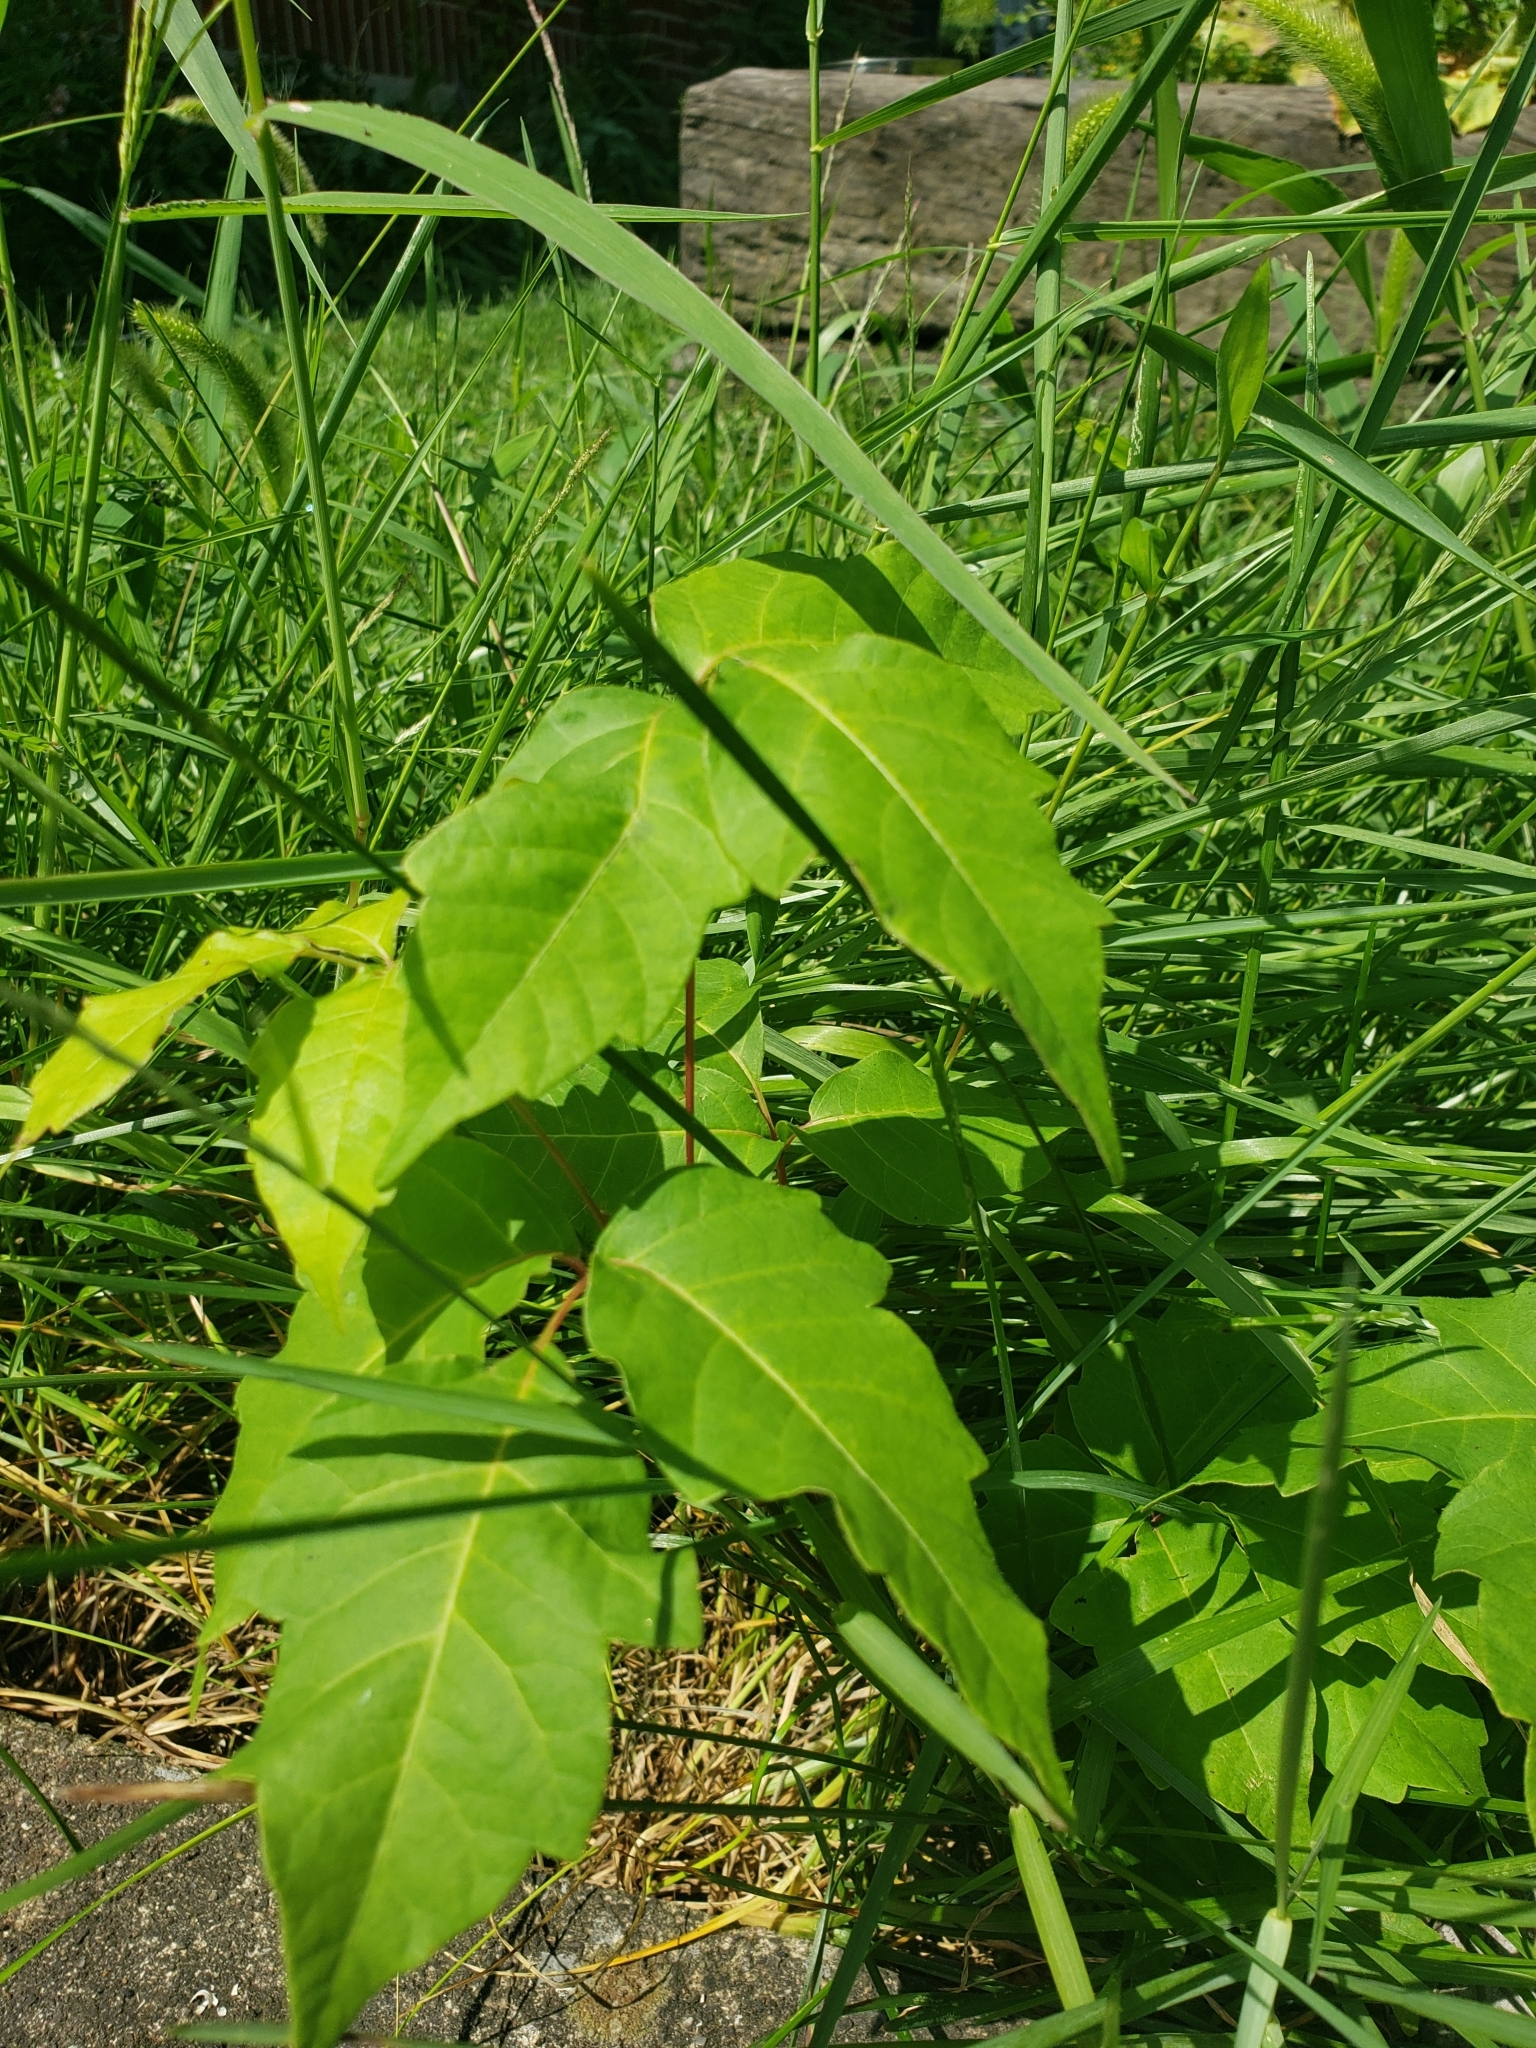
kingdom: Plantae
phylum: Tracheophyta
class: Magnoliopsida
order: Sapindales
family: Anacardiaceae
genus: Toxicodendron
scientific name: Toxicodendron radicans
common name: Poison ivy
